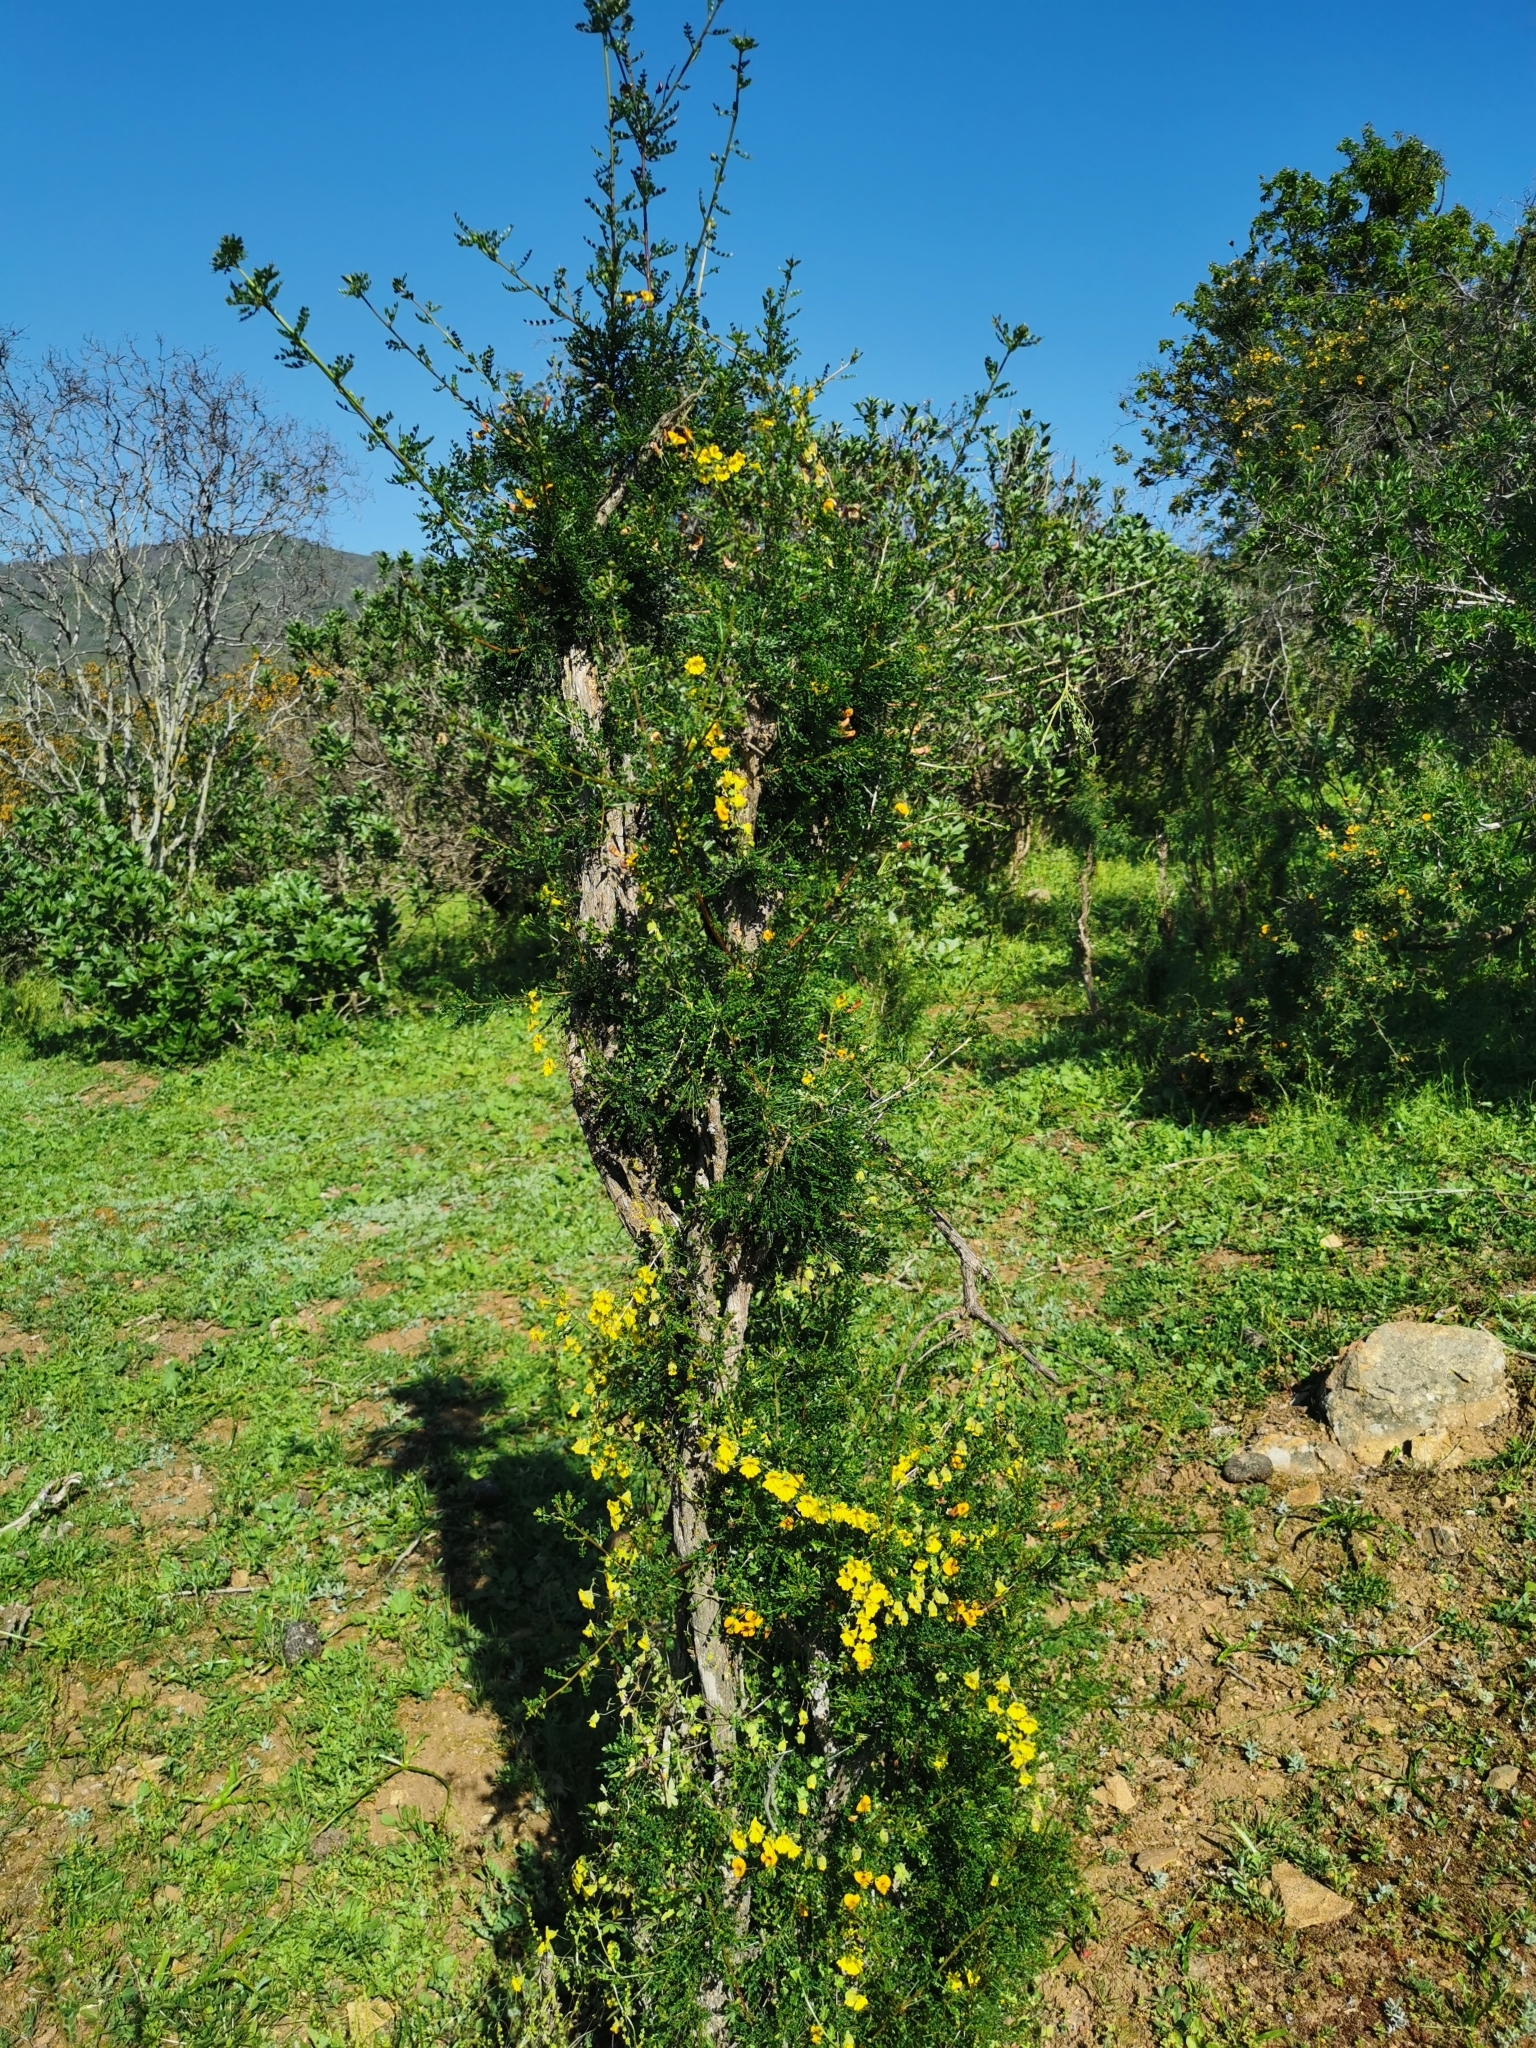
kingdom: Plantae
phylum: Tracheophyta
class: Magnoliopsida
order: Brassicales
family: Tropaeolaceae
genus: Tropaeolum
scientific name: Tropaeolum brachyceras
